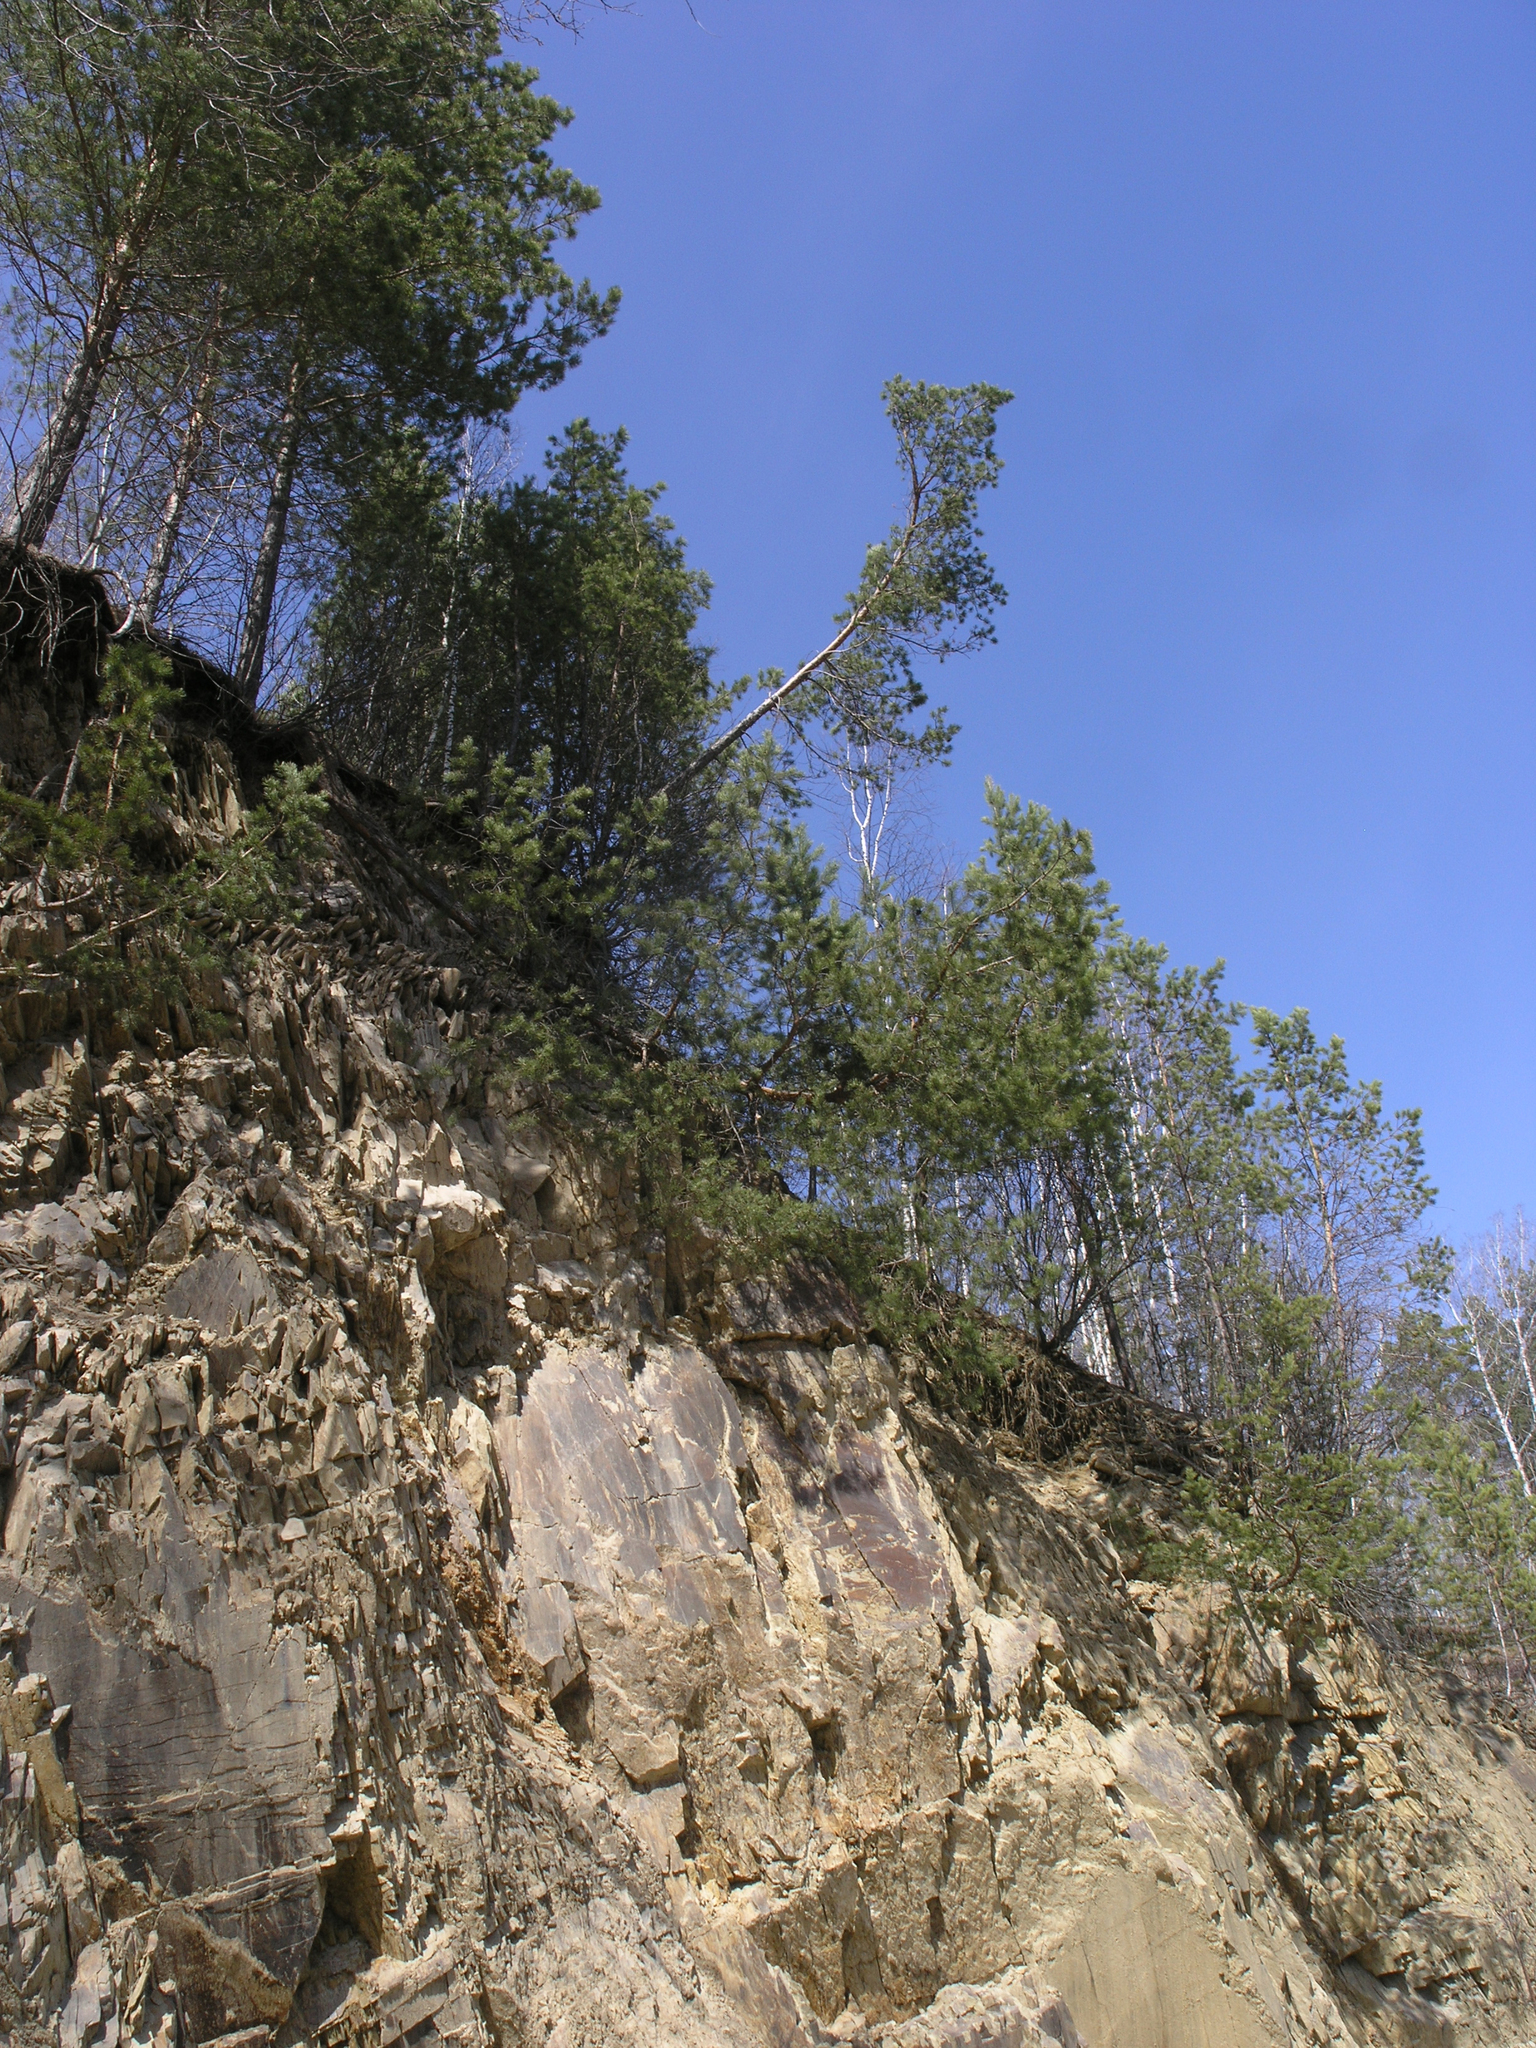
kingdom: Plantae
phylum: Tracheophyta
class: Pinopsida
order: Pinales
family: Pinaceae
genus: Pinus
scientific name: Pinus sylvestris
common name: Scots pine
